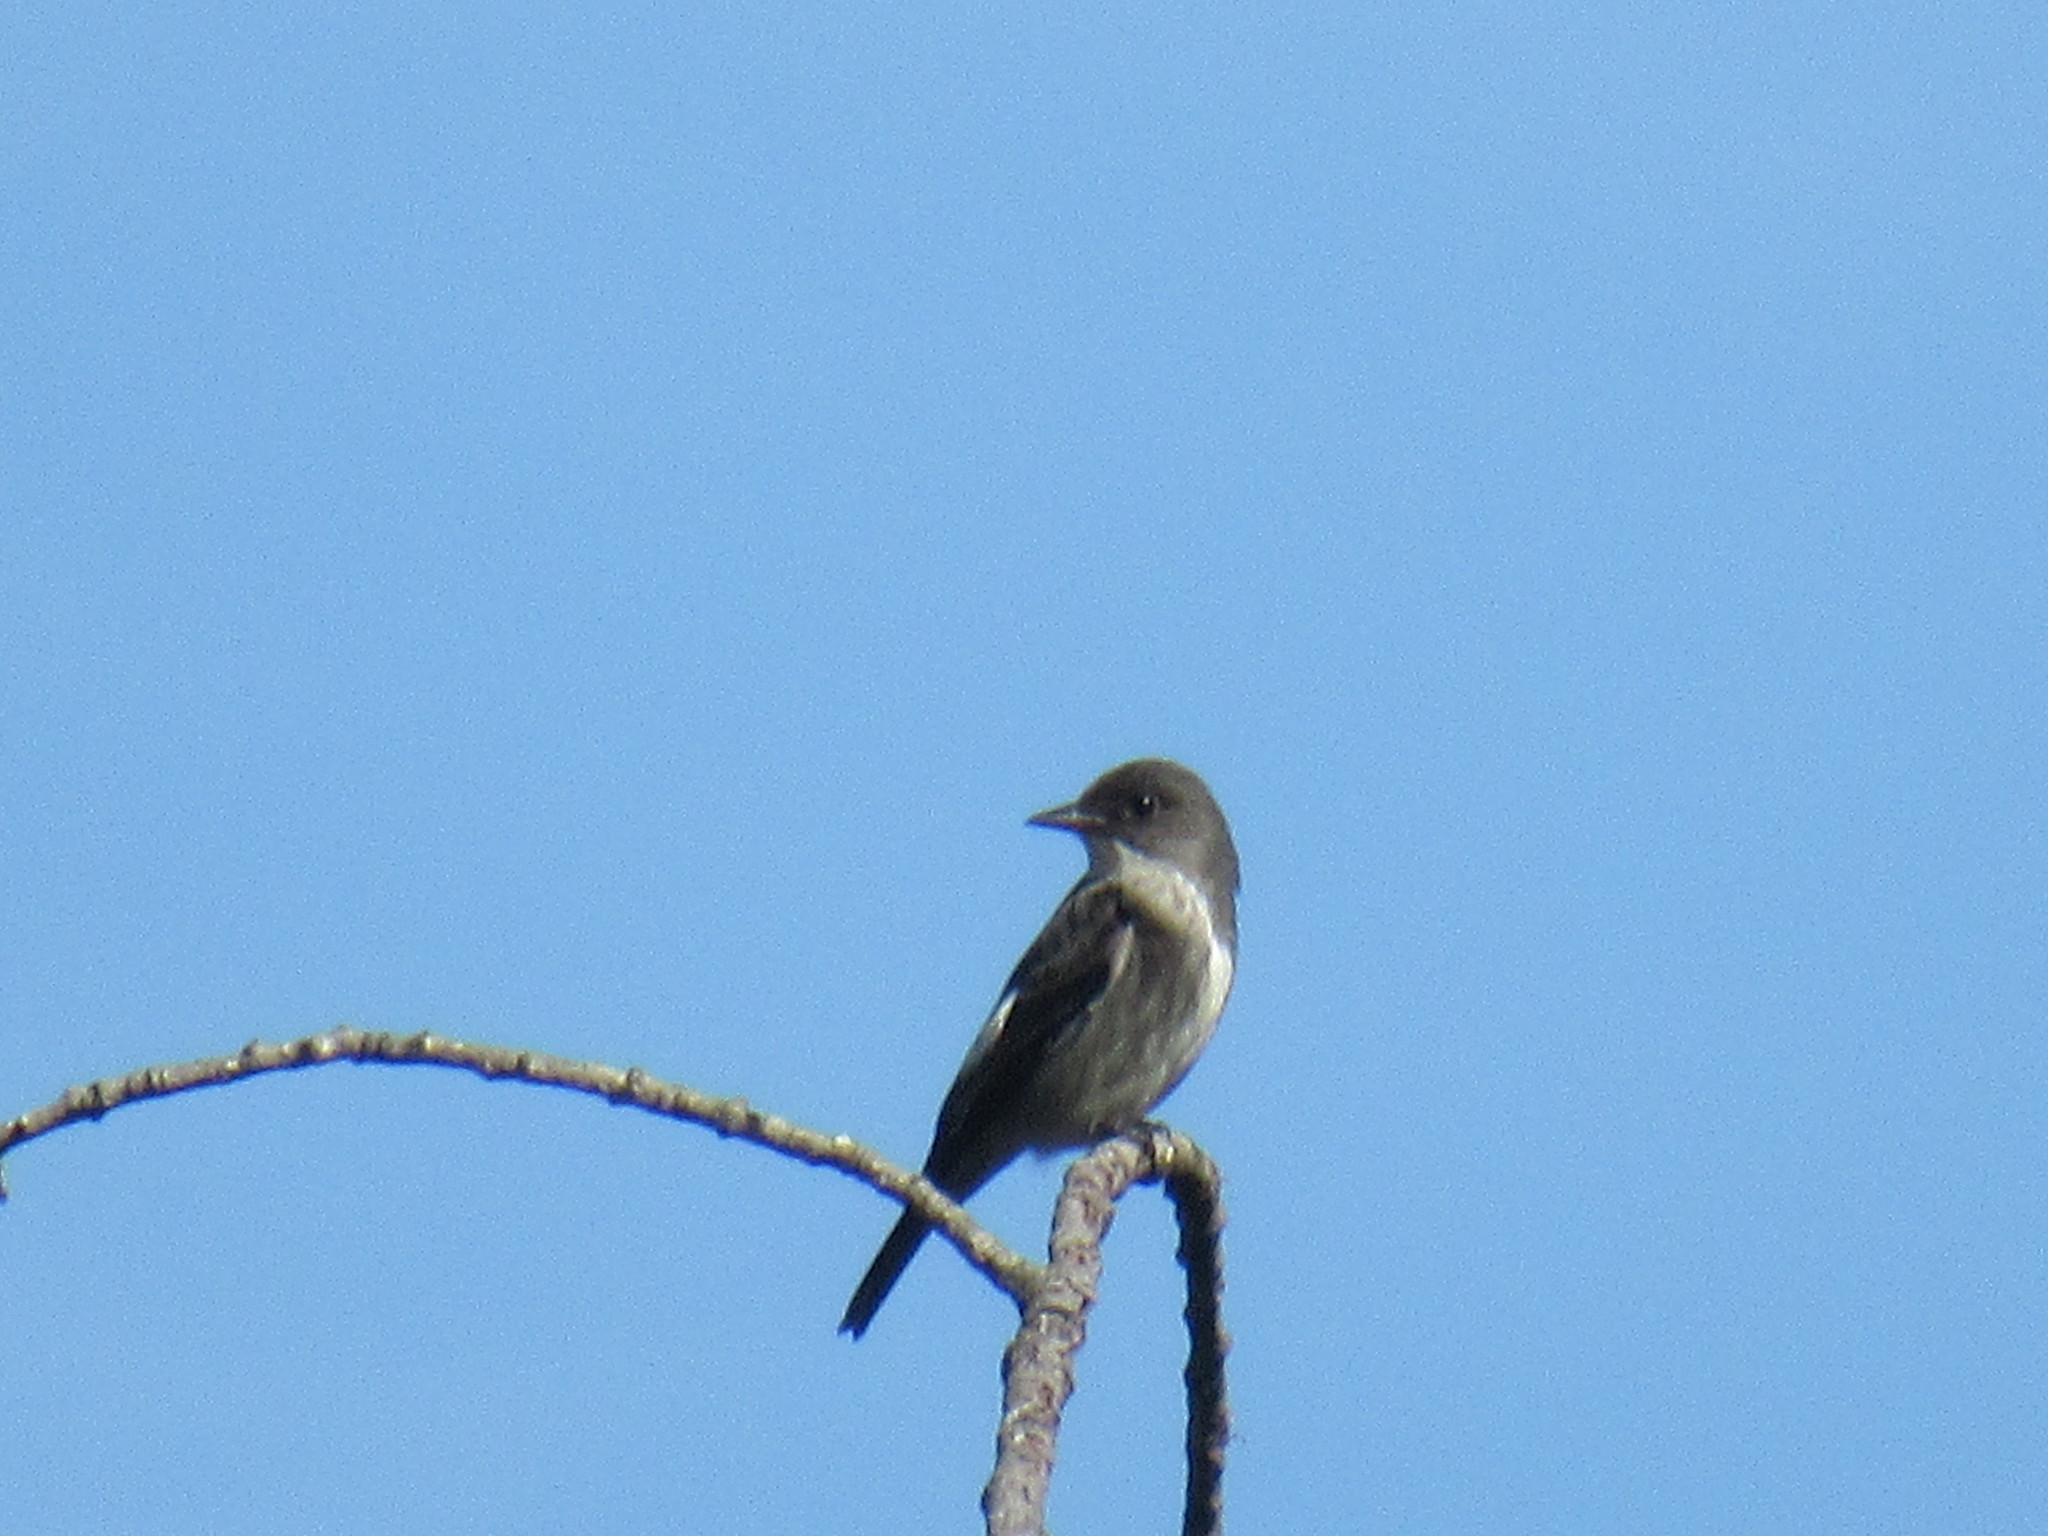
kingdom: Animalia
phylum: Chordata
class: Aves
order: Passeriformes
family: Tyrannidae
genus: Contopus
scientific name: Contopus cooperi
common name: Olive-sided flycatcher
